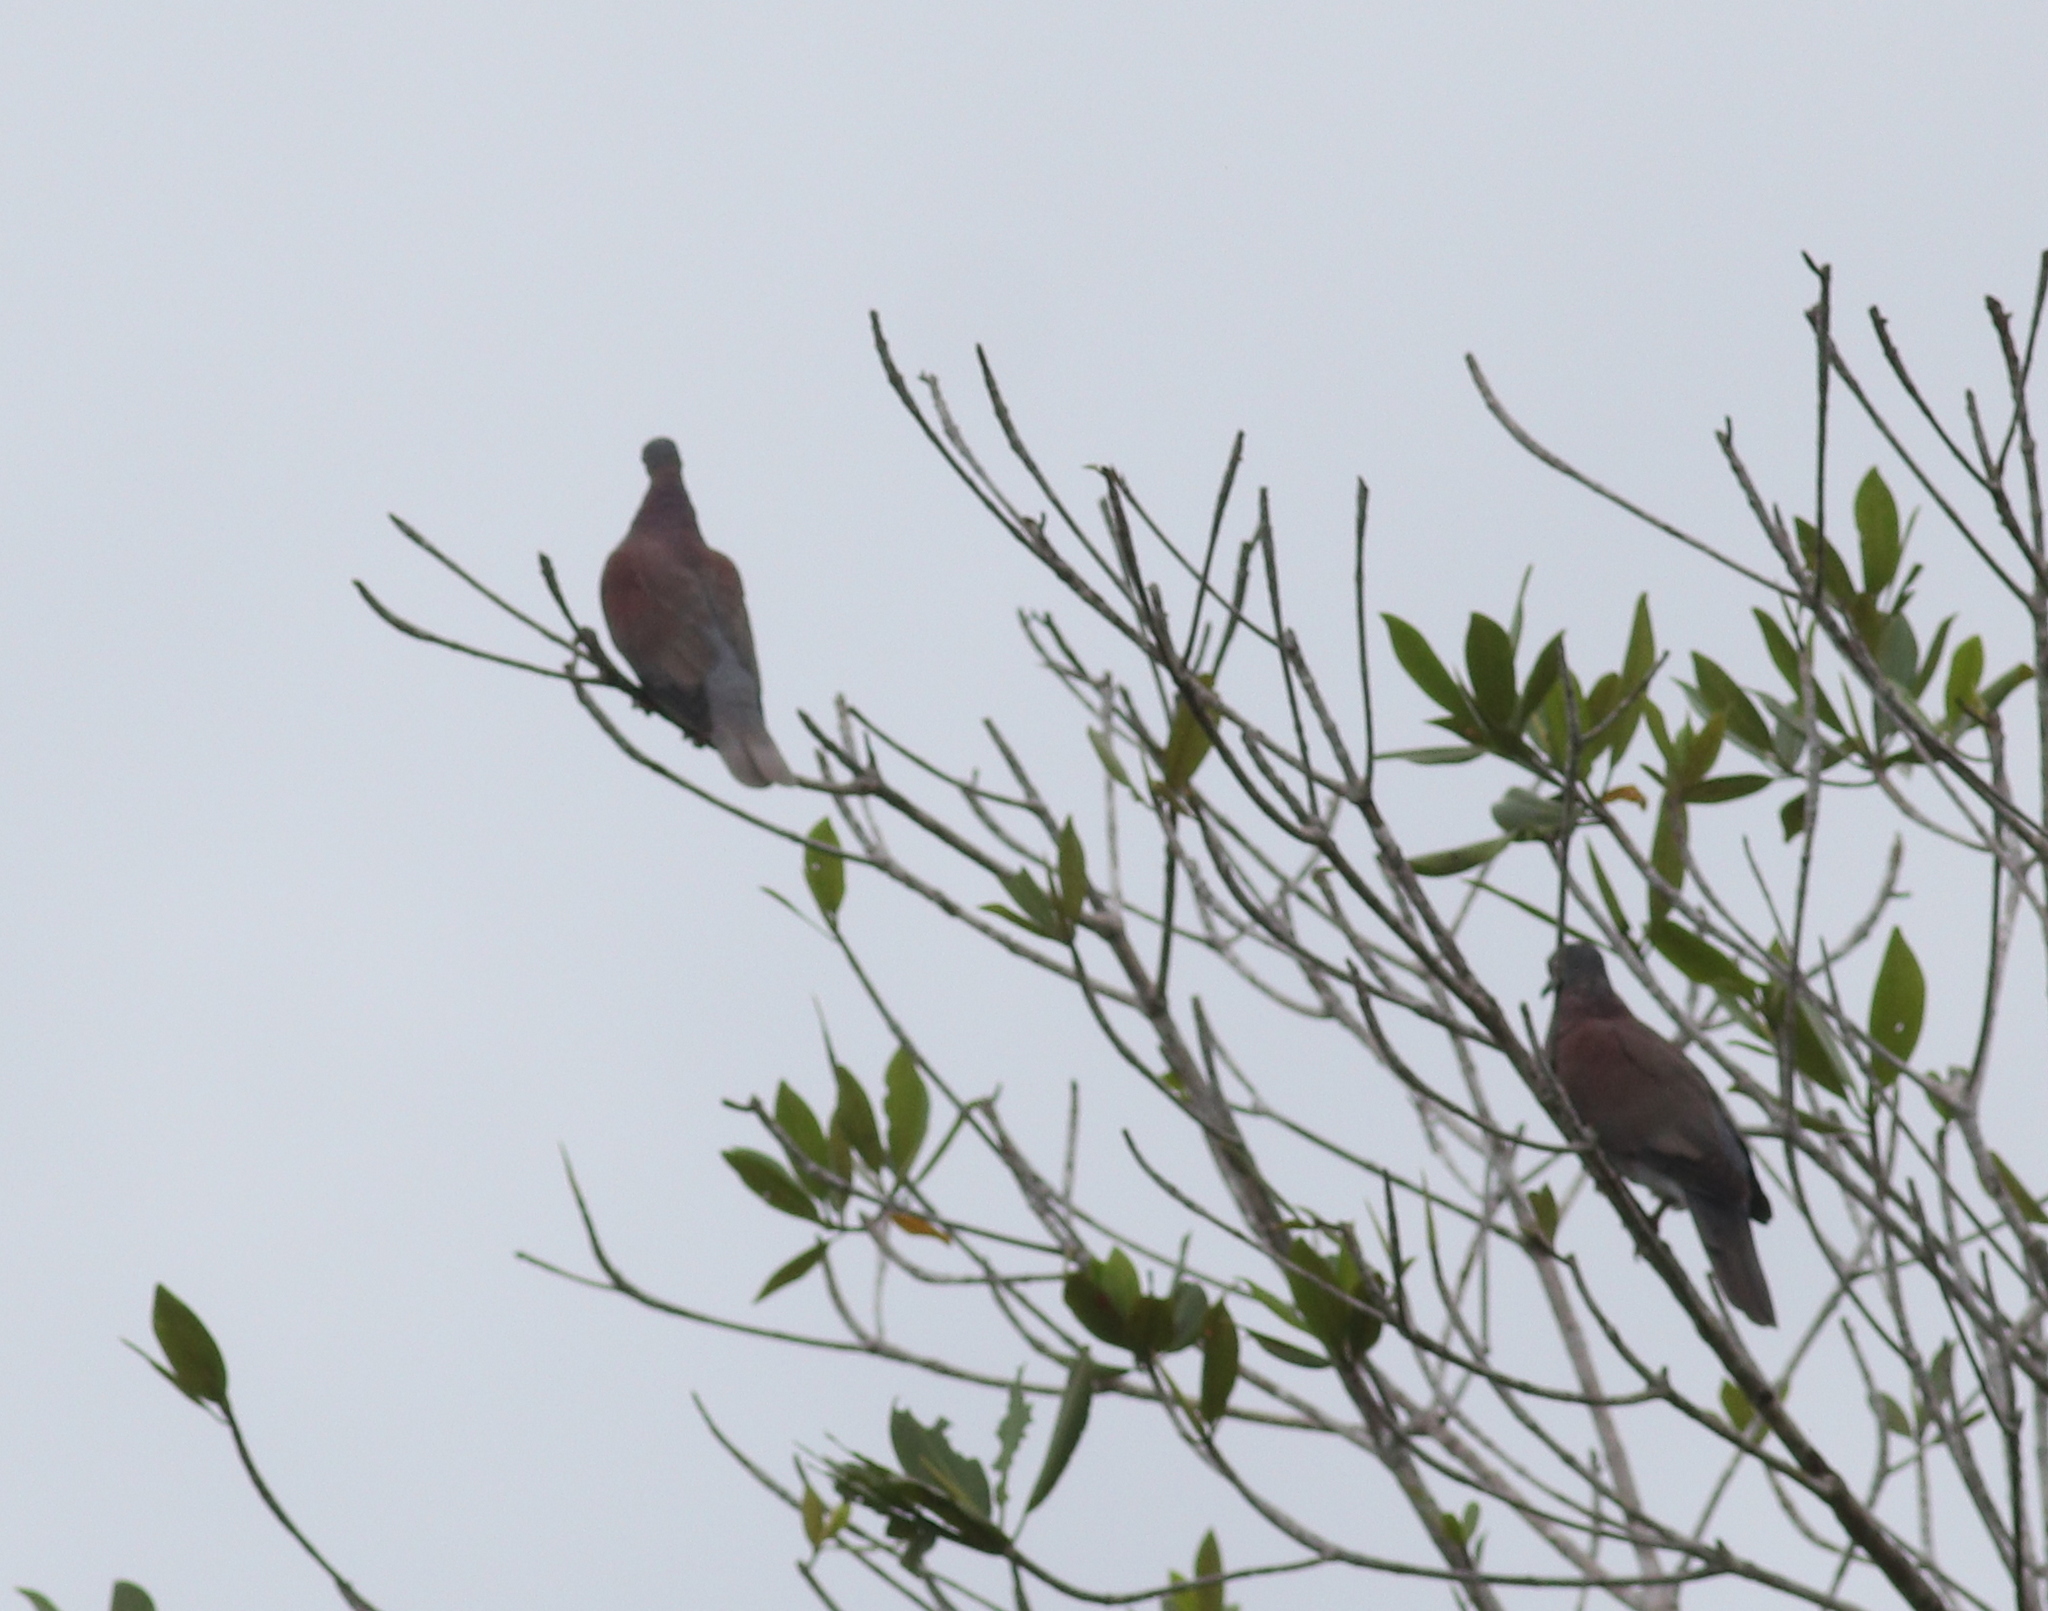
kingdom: Animalia
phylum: Chordata
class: Aves
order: Columbiformes
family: Columbidae
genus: Patagioenas
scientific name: Patagioenas cayennensis
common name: Pale-vented pigeon
